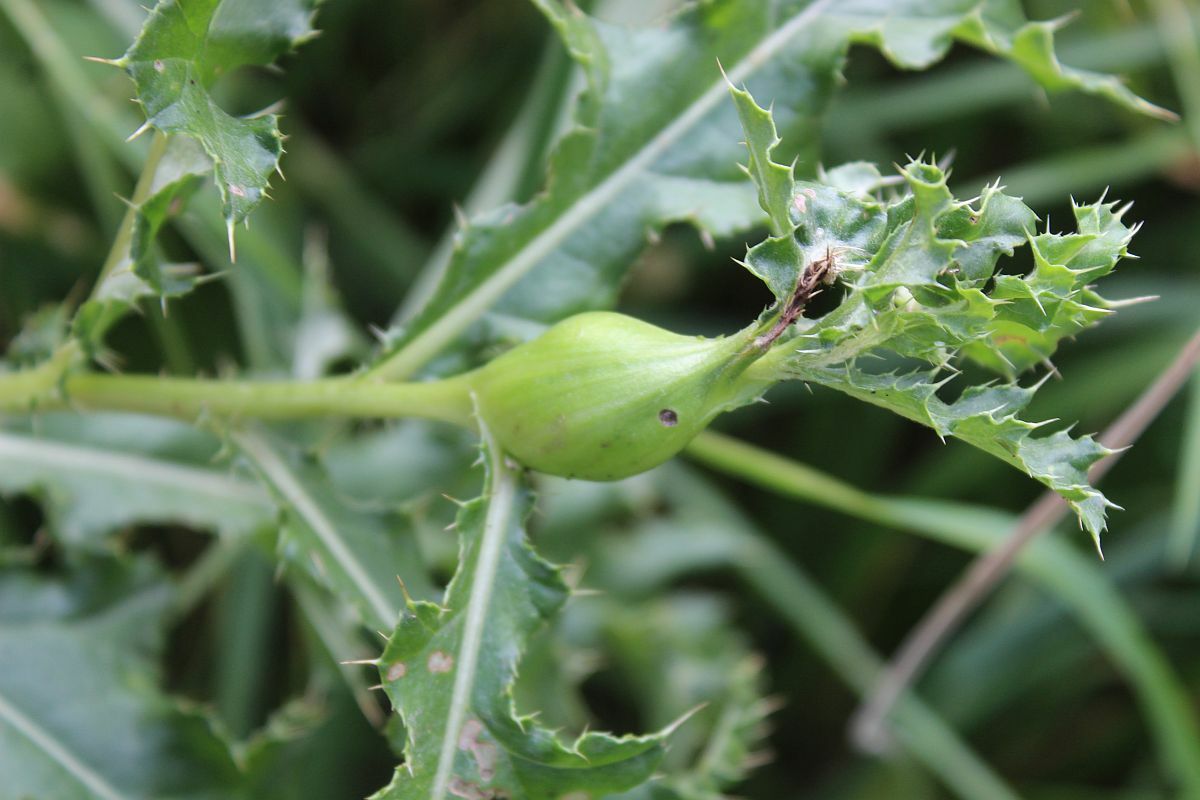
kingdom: Animalia
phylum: Arthropoda
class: Insecta
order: Diptera
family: Tephritidae
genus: Urophora
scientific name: Urophora cardui
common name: Fruit fly
